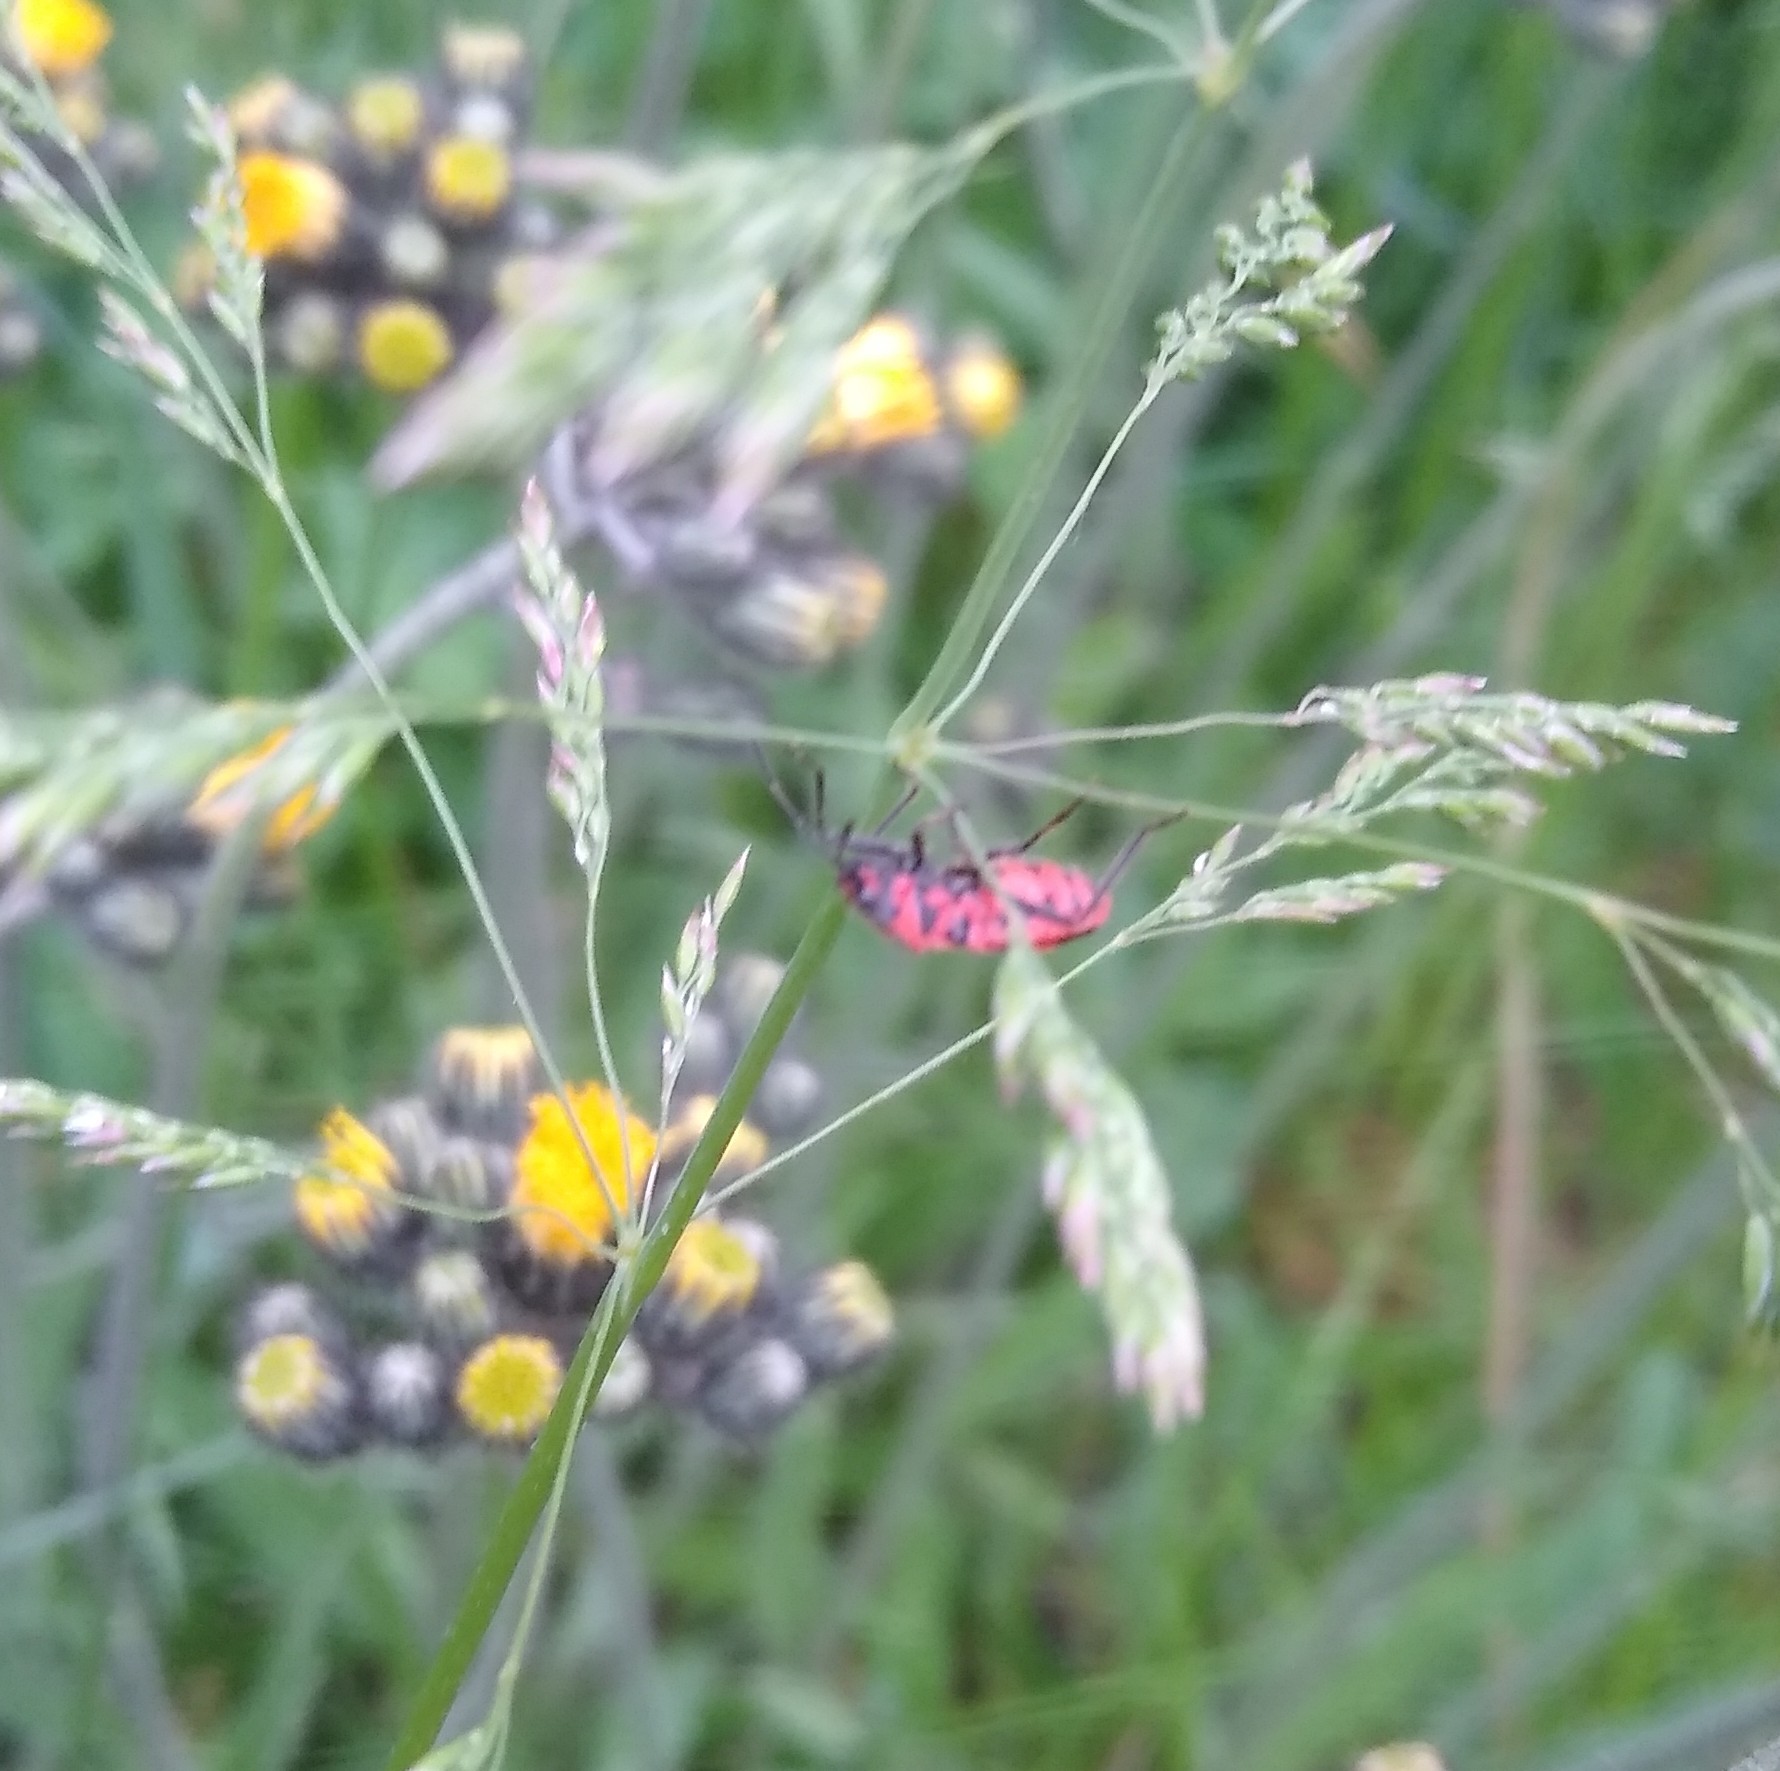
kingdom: Animalia
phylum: Arthropoda
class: Insecta
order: Hemiptera
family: Rhopalidae
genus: Corizus
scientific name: Corizus hyoscyami
